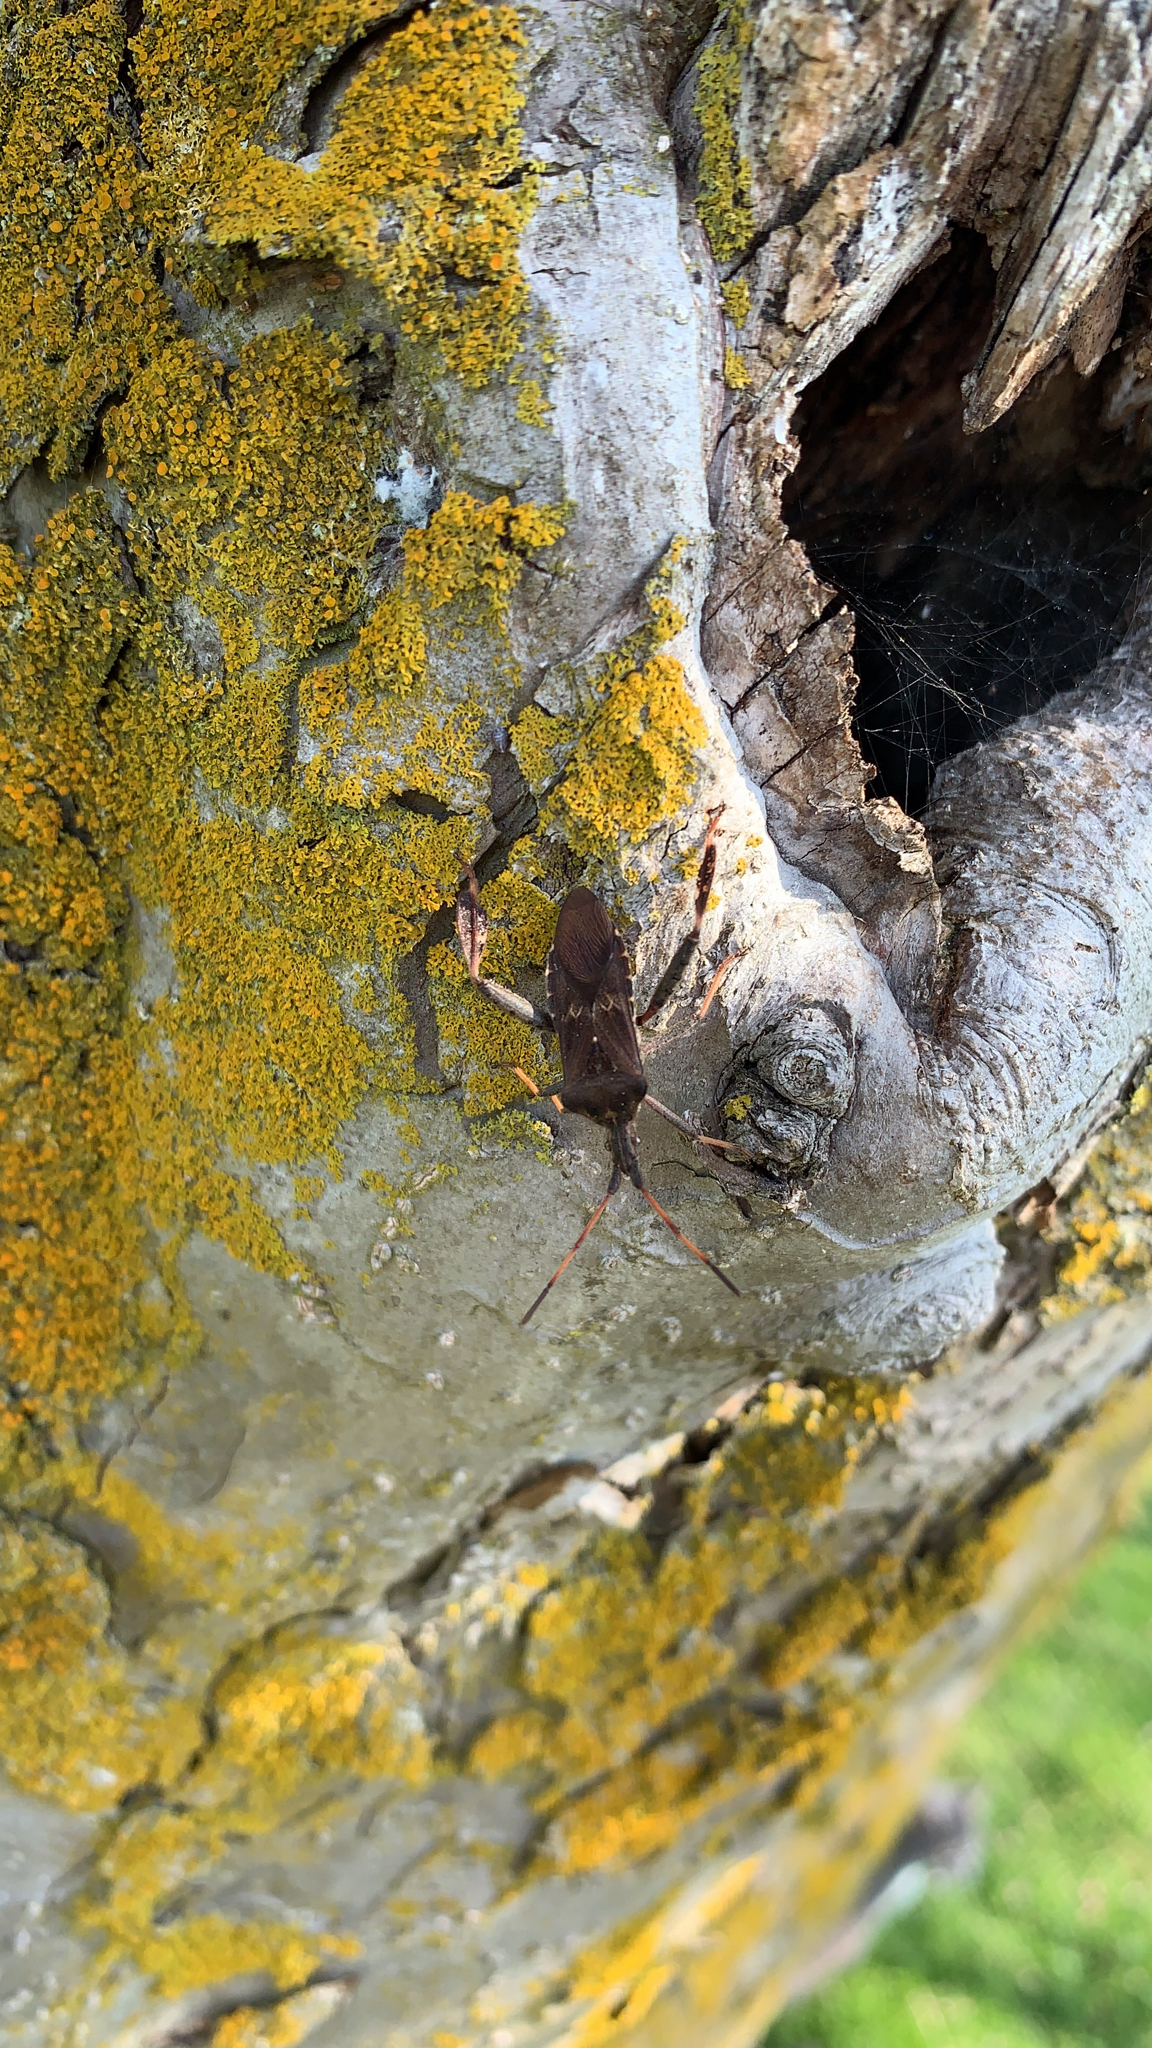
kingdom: Animalia
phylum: Arthropoda
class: Insecta
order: Hemiptera
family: Coreidae
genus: Leptoglossus
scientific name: Leptoglossus corculus
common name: Southern pine seed bug
